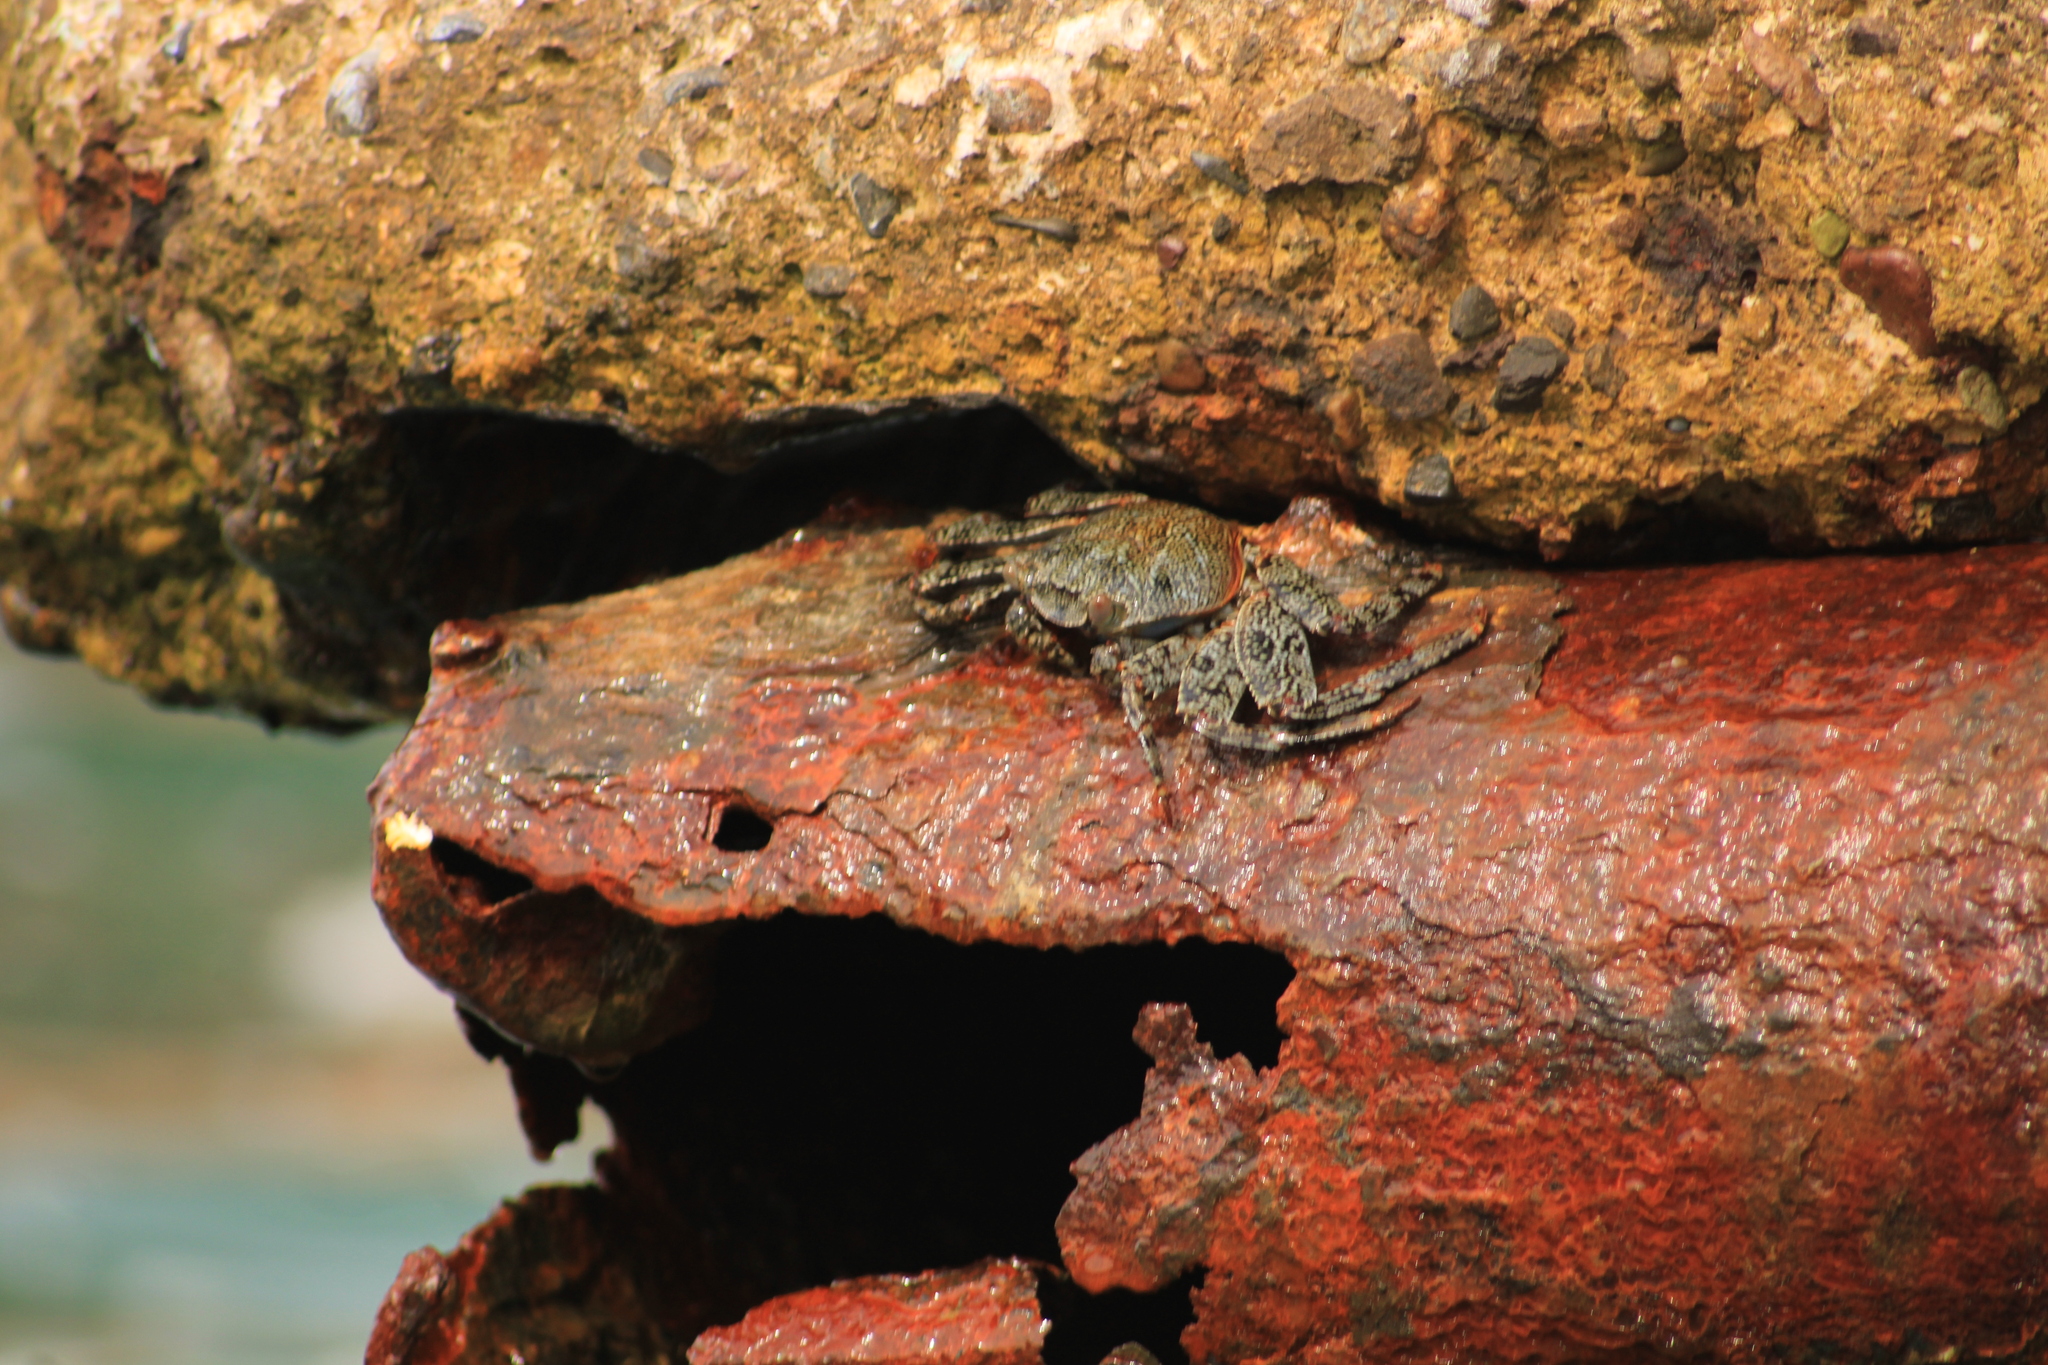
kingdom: Animalia
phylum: Arthropoda
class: Malacostraca
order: Decapoda
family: Grapsidae
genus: Grapsus
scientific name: Grapsus grapsus
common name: Sally lightfoot
